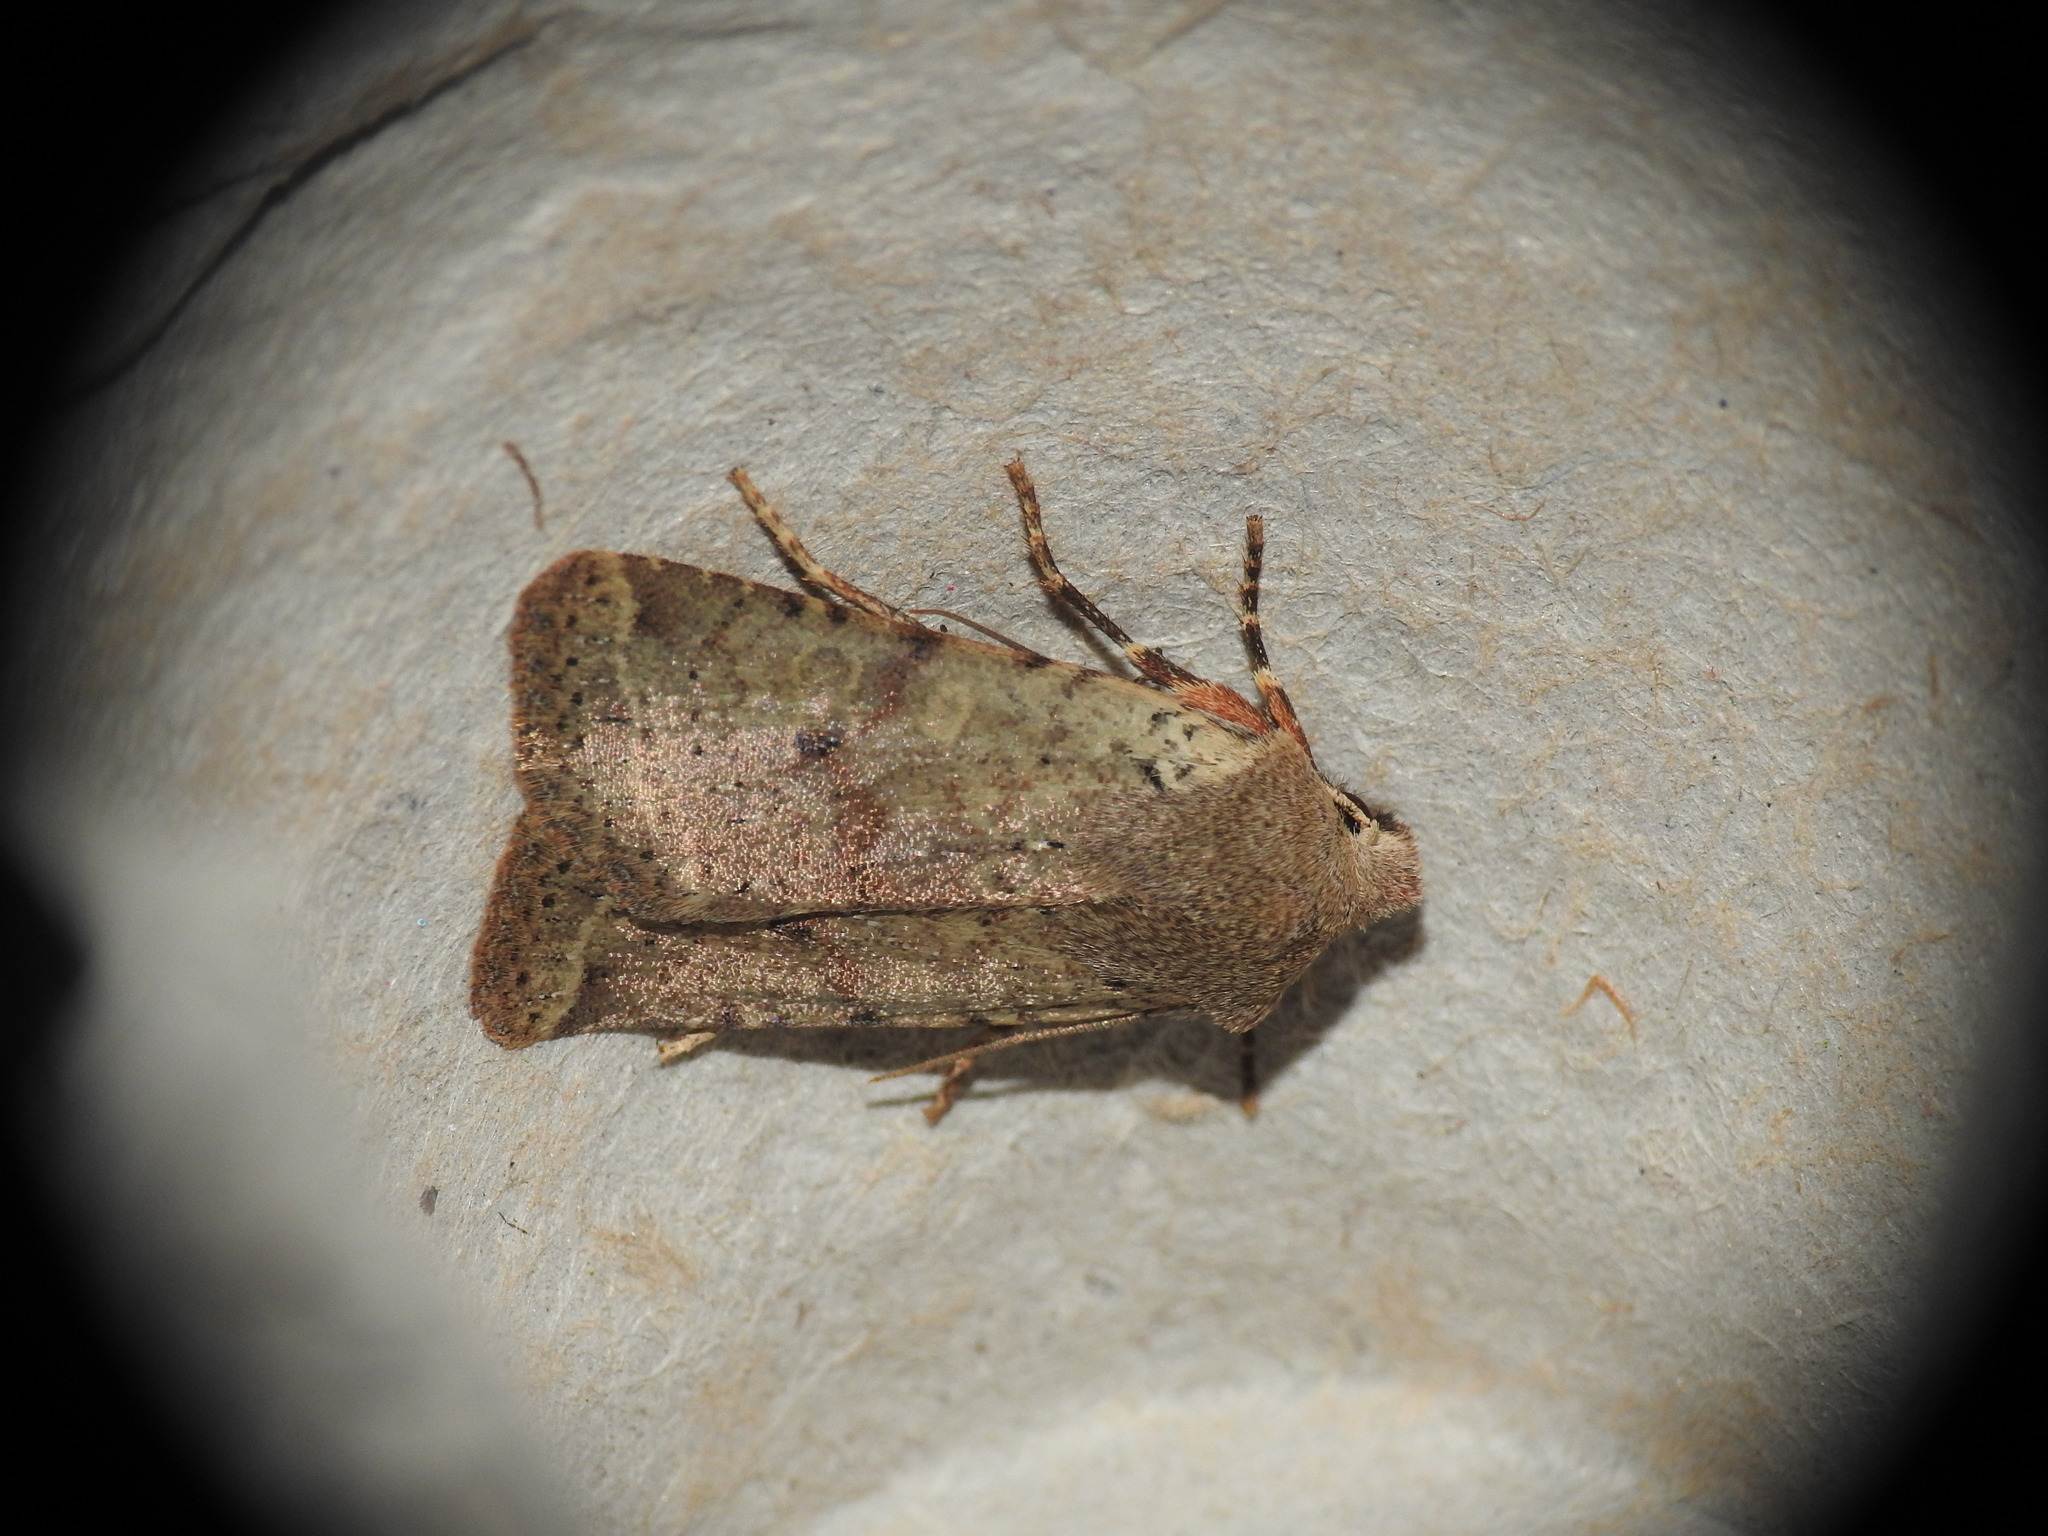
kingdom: Animalia
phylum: Arthropoda
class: Insecta
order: Lepidoptera
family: Noctuidae
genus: Agrochola
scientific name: Agrochola ruticilla
